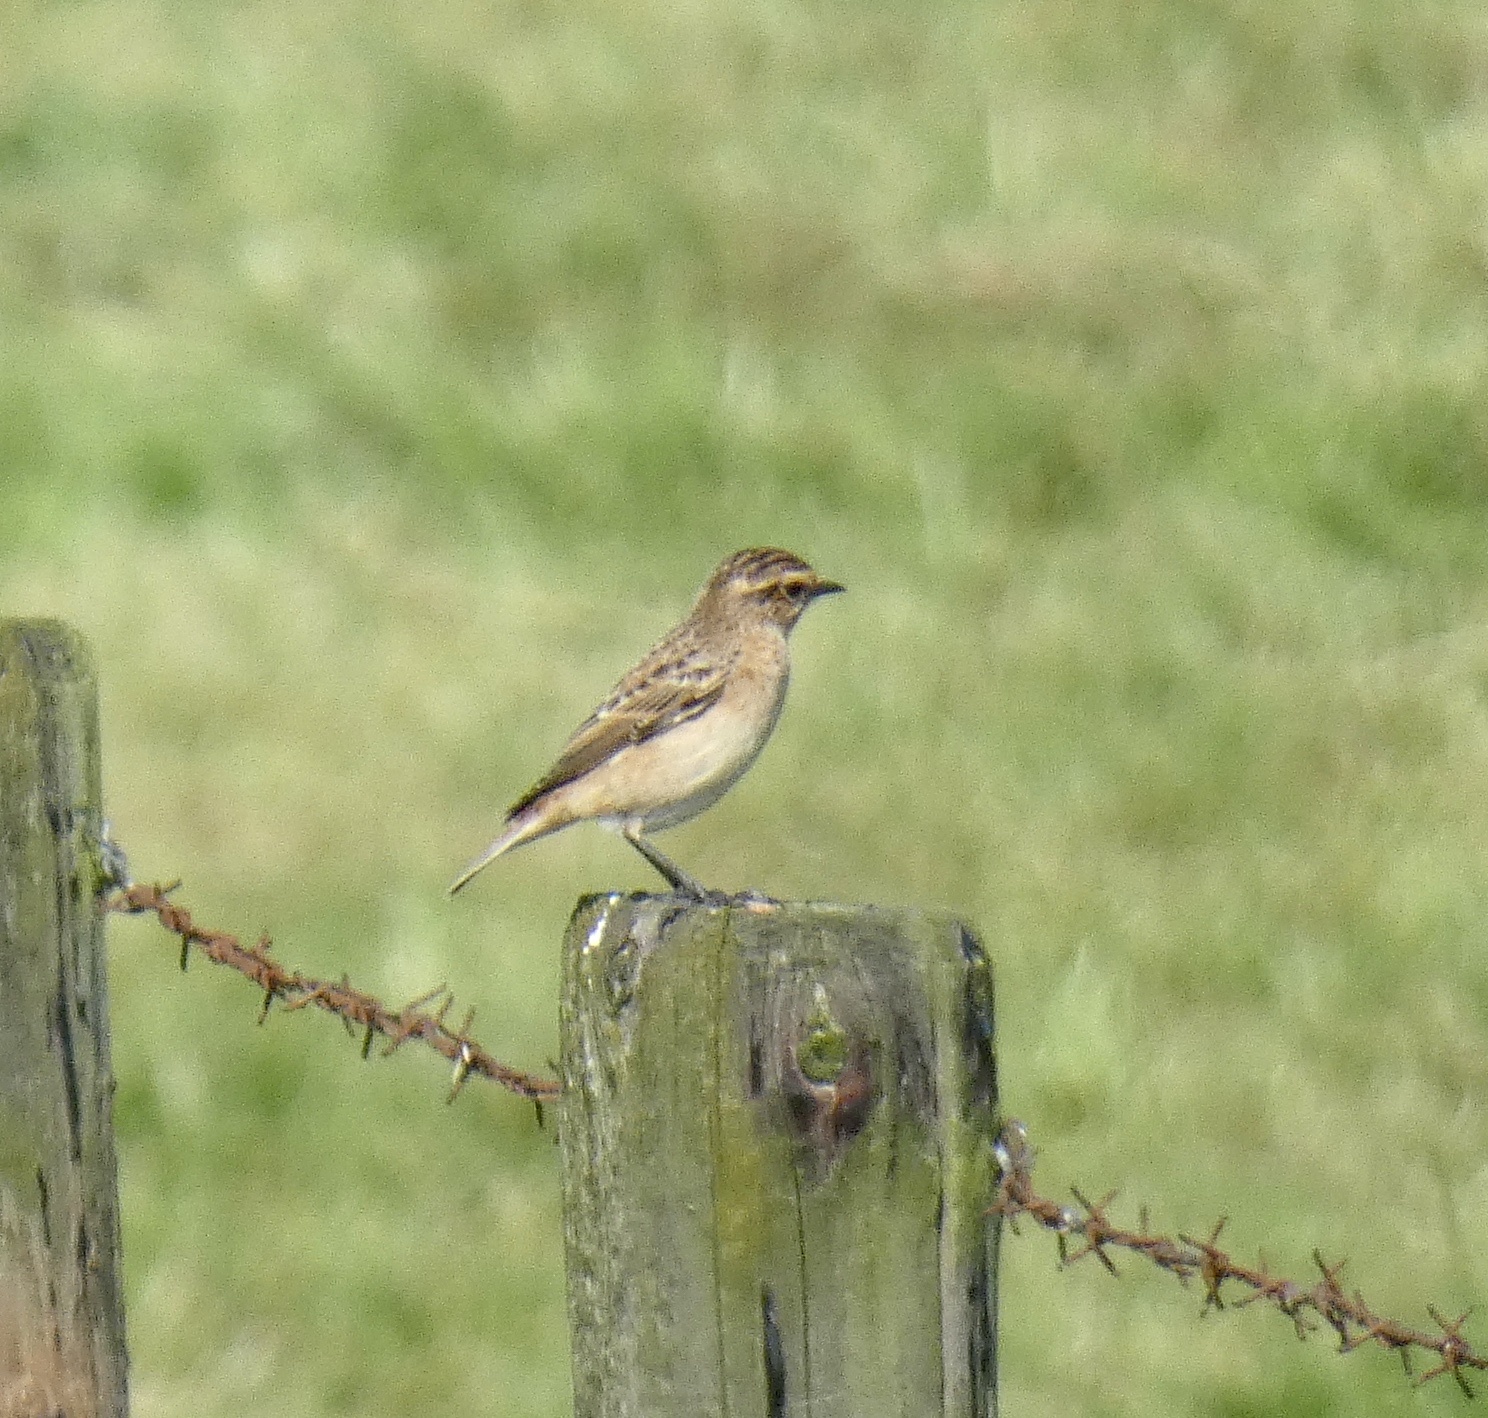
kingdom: Animalia
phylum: Chordata
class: Aves
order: Passeriformes
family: Muscicapidae
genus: Saxicola
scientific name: Saxicola rubetra
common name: Whinchat
